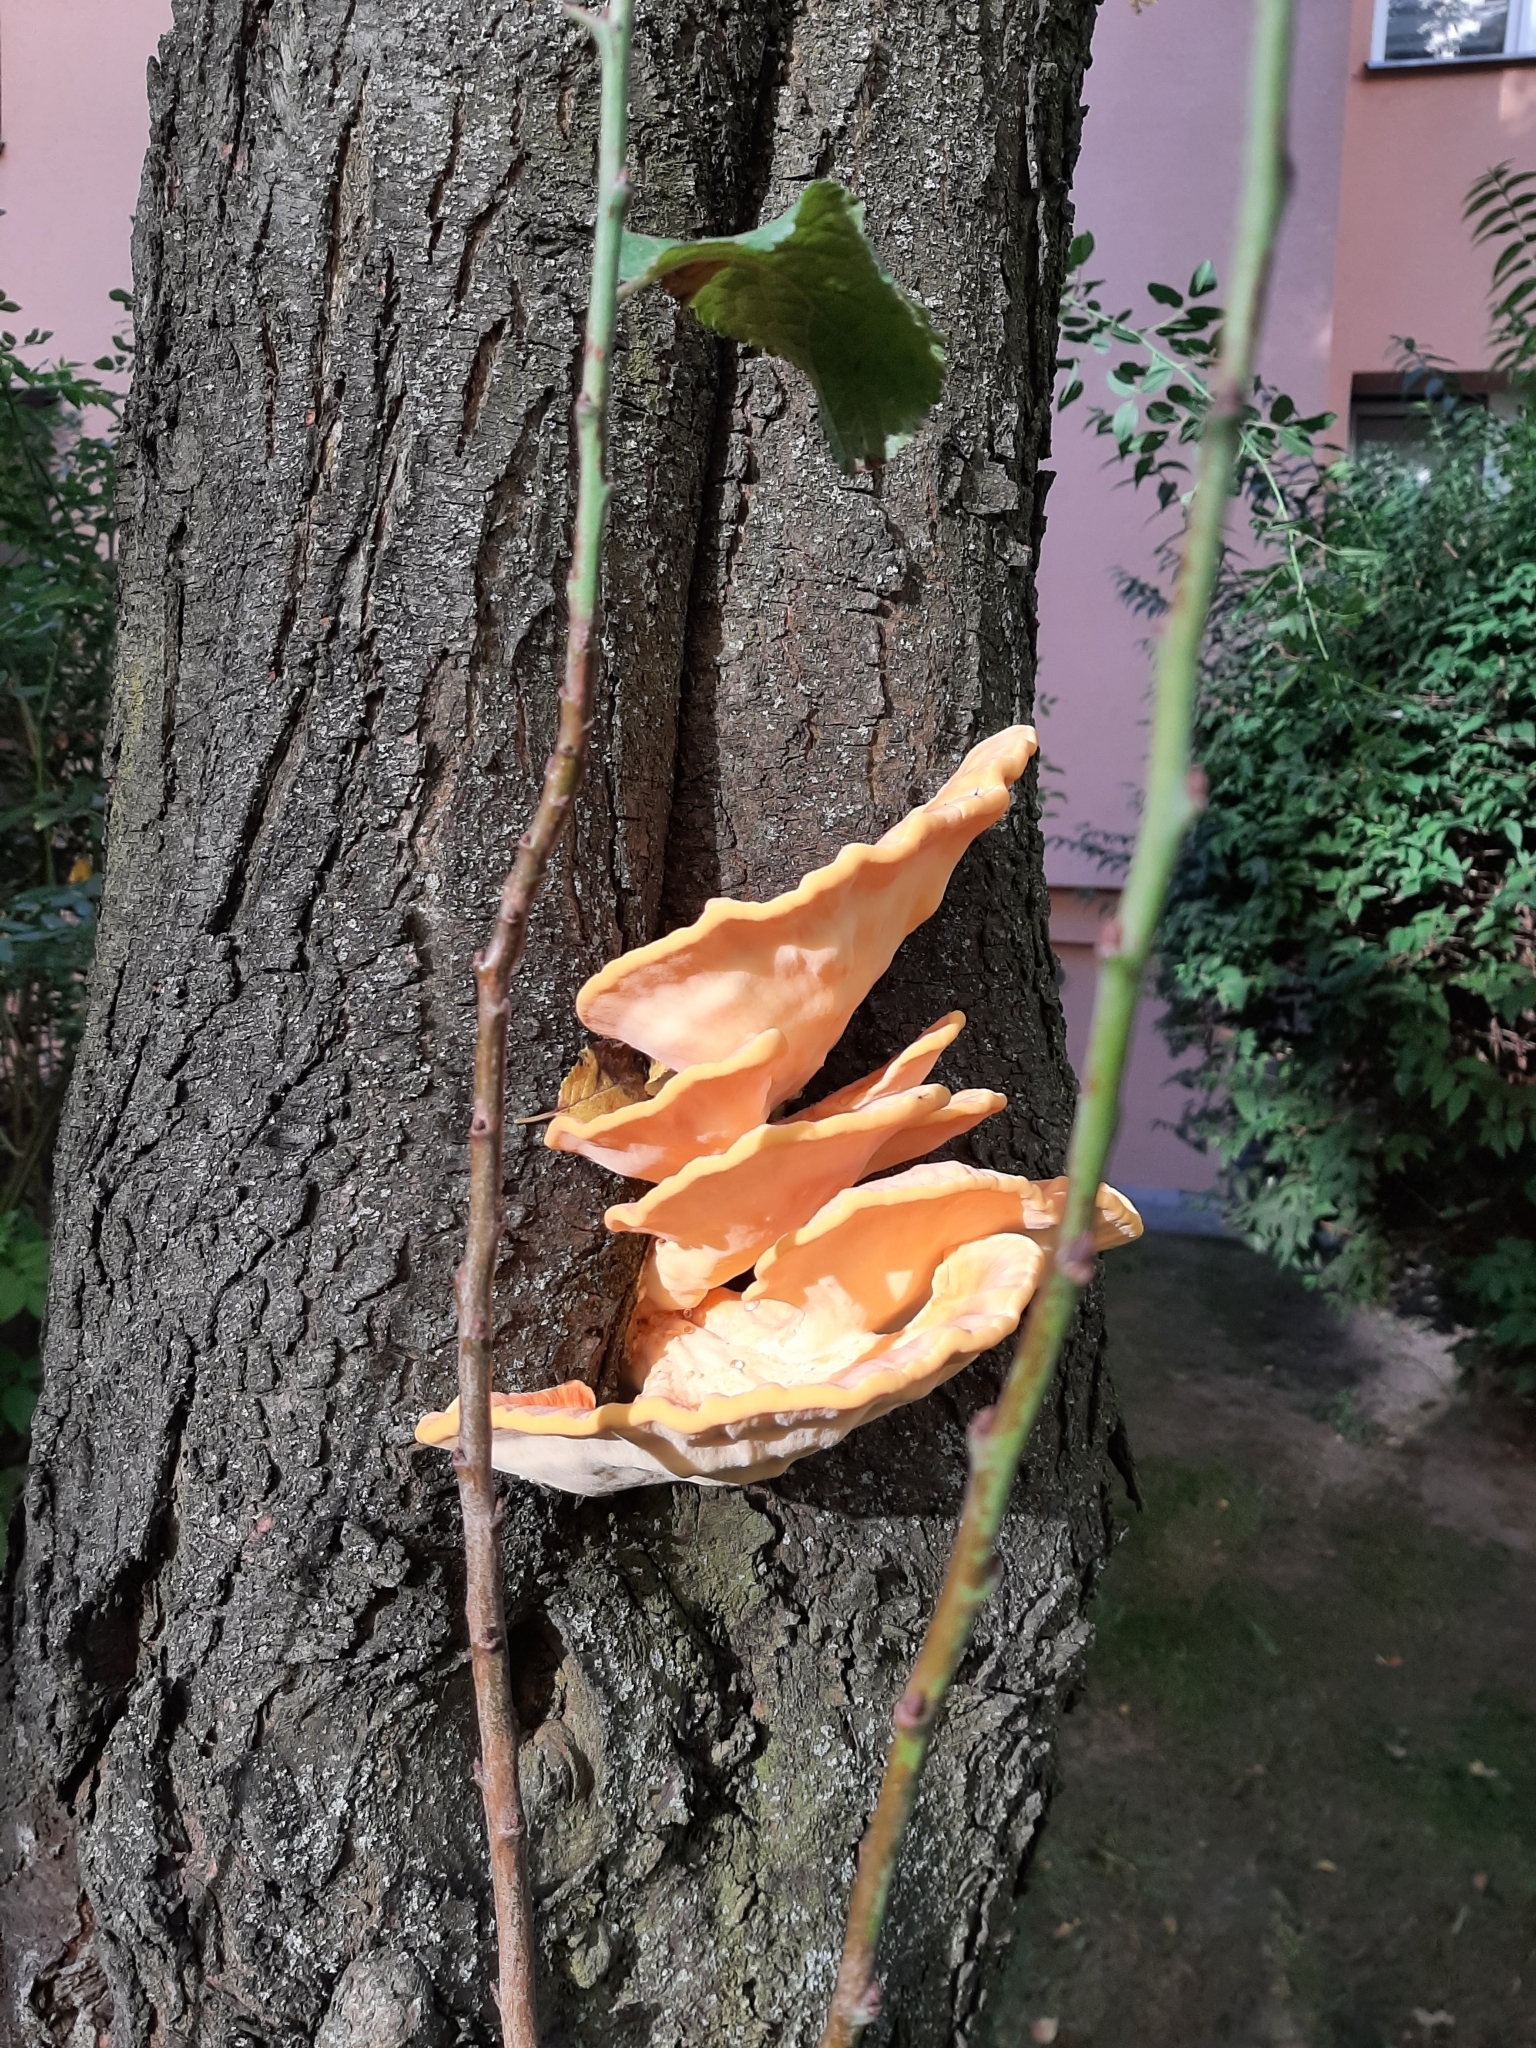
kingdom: Fungi
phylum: Basidiomycota
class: Agaricomycetes
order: Polyporales
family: Laetiporaceae
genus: Laetiporus
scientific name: Laetiporus sulphureus
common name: Chicken of the woods
